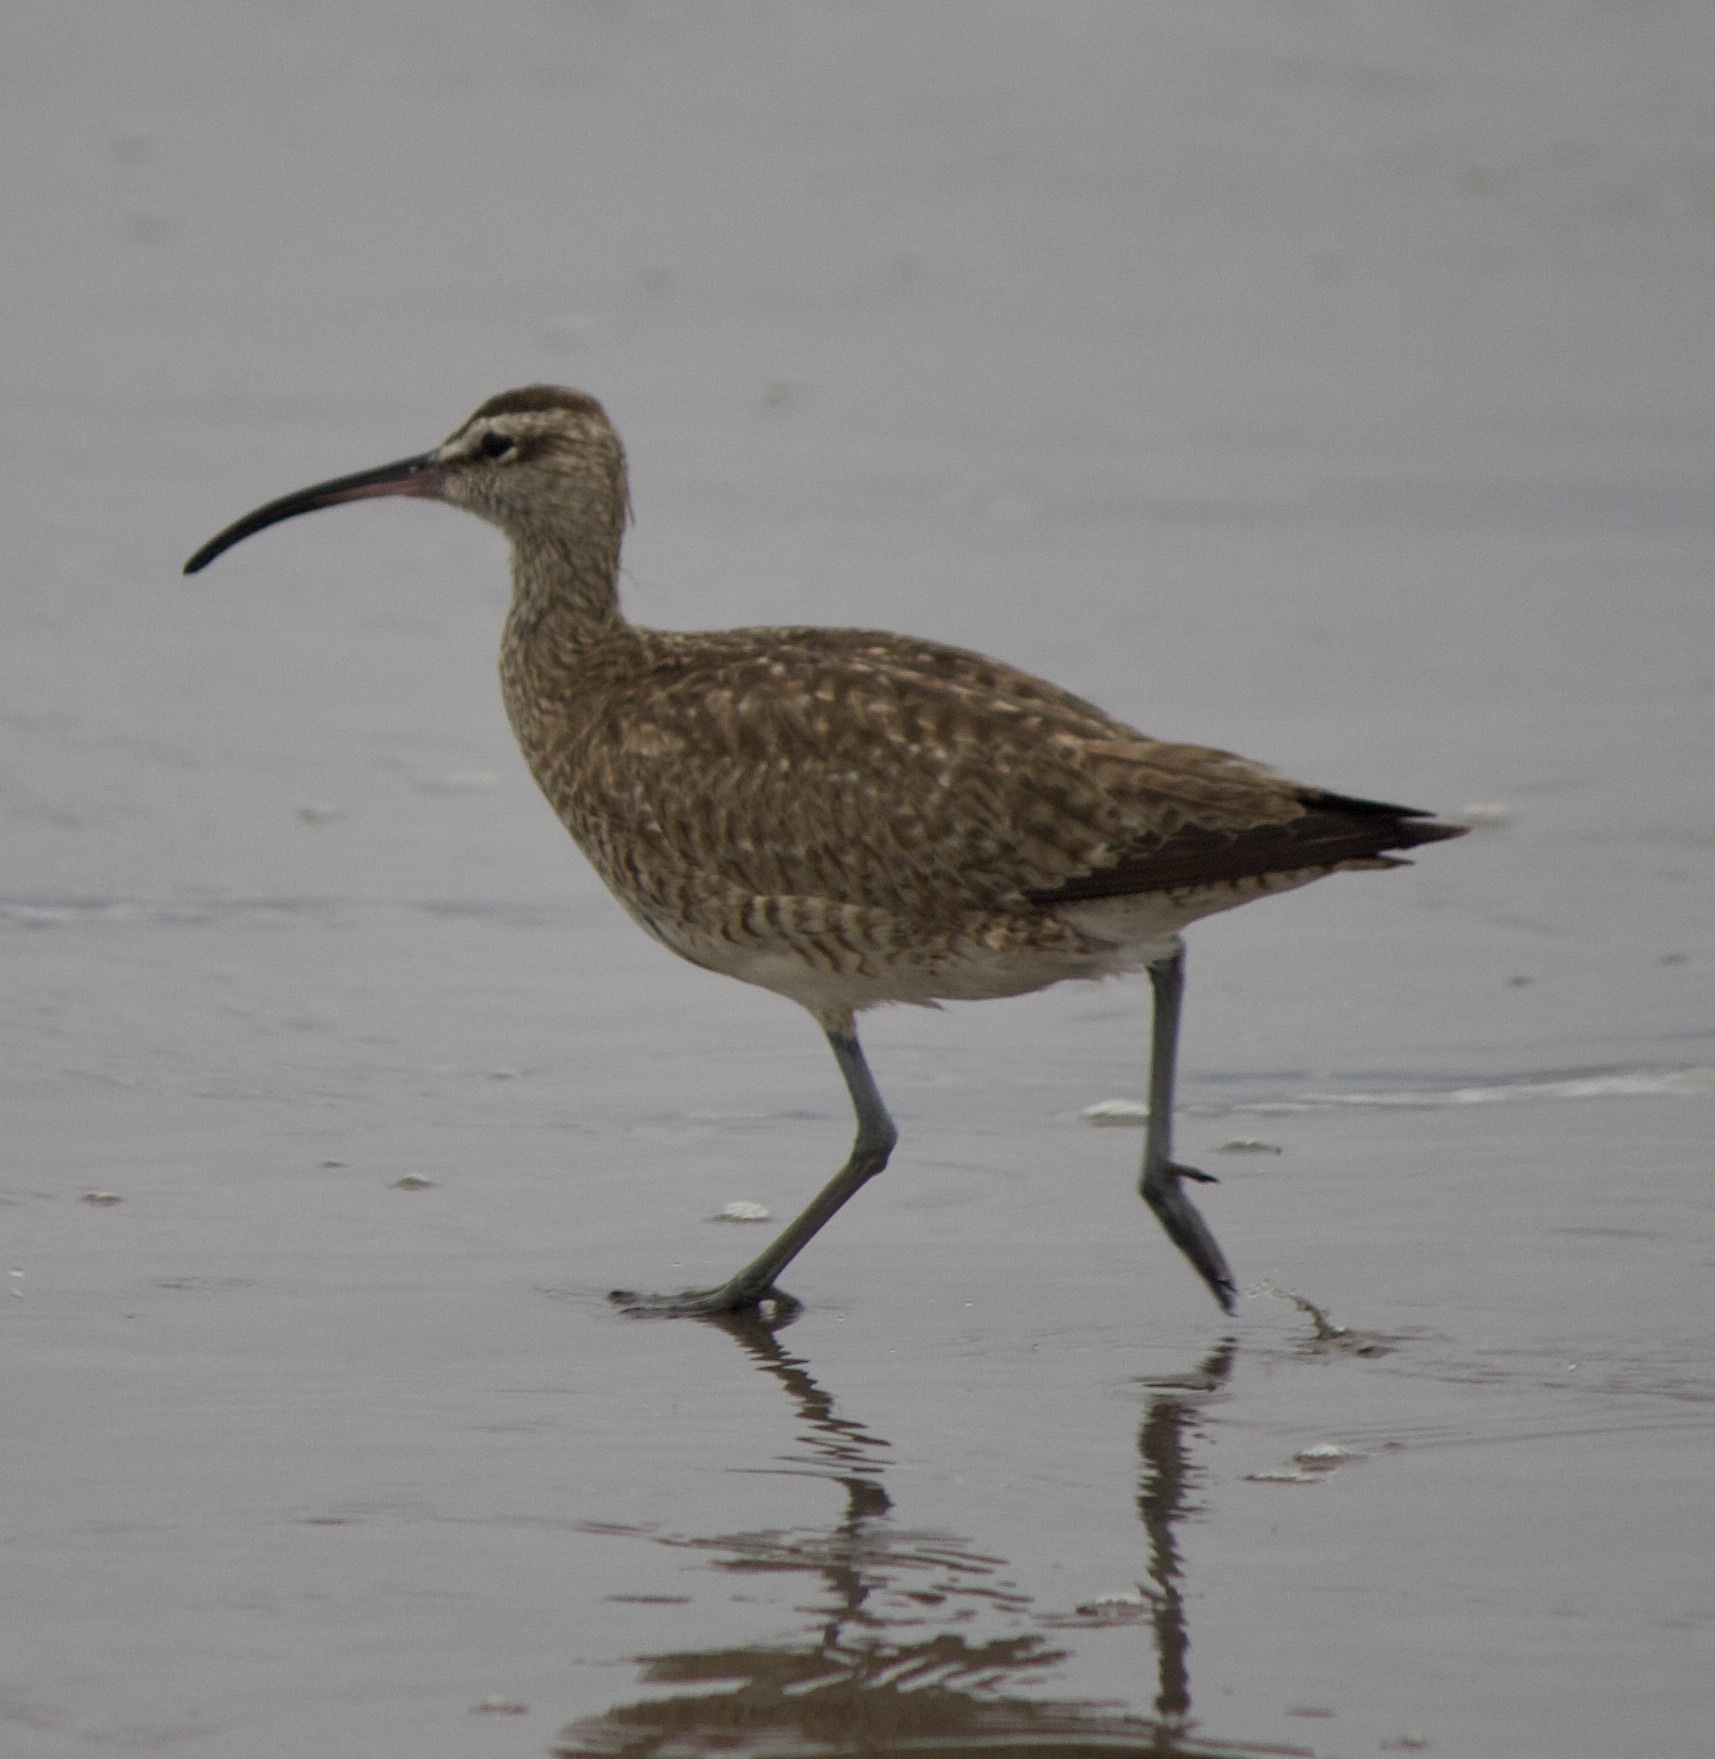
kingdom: Animalia
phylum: Chordata
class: Aves
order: Charadriiformes
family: Scolopacidae
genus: Numenius
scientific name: Numenius phaeopus
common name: Whimbrel
